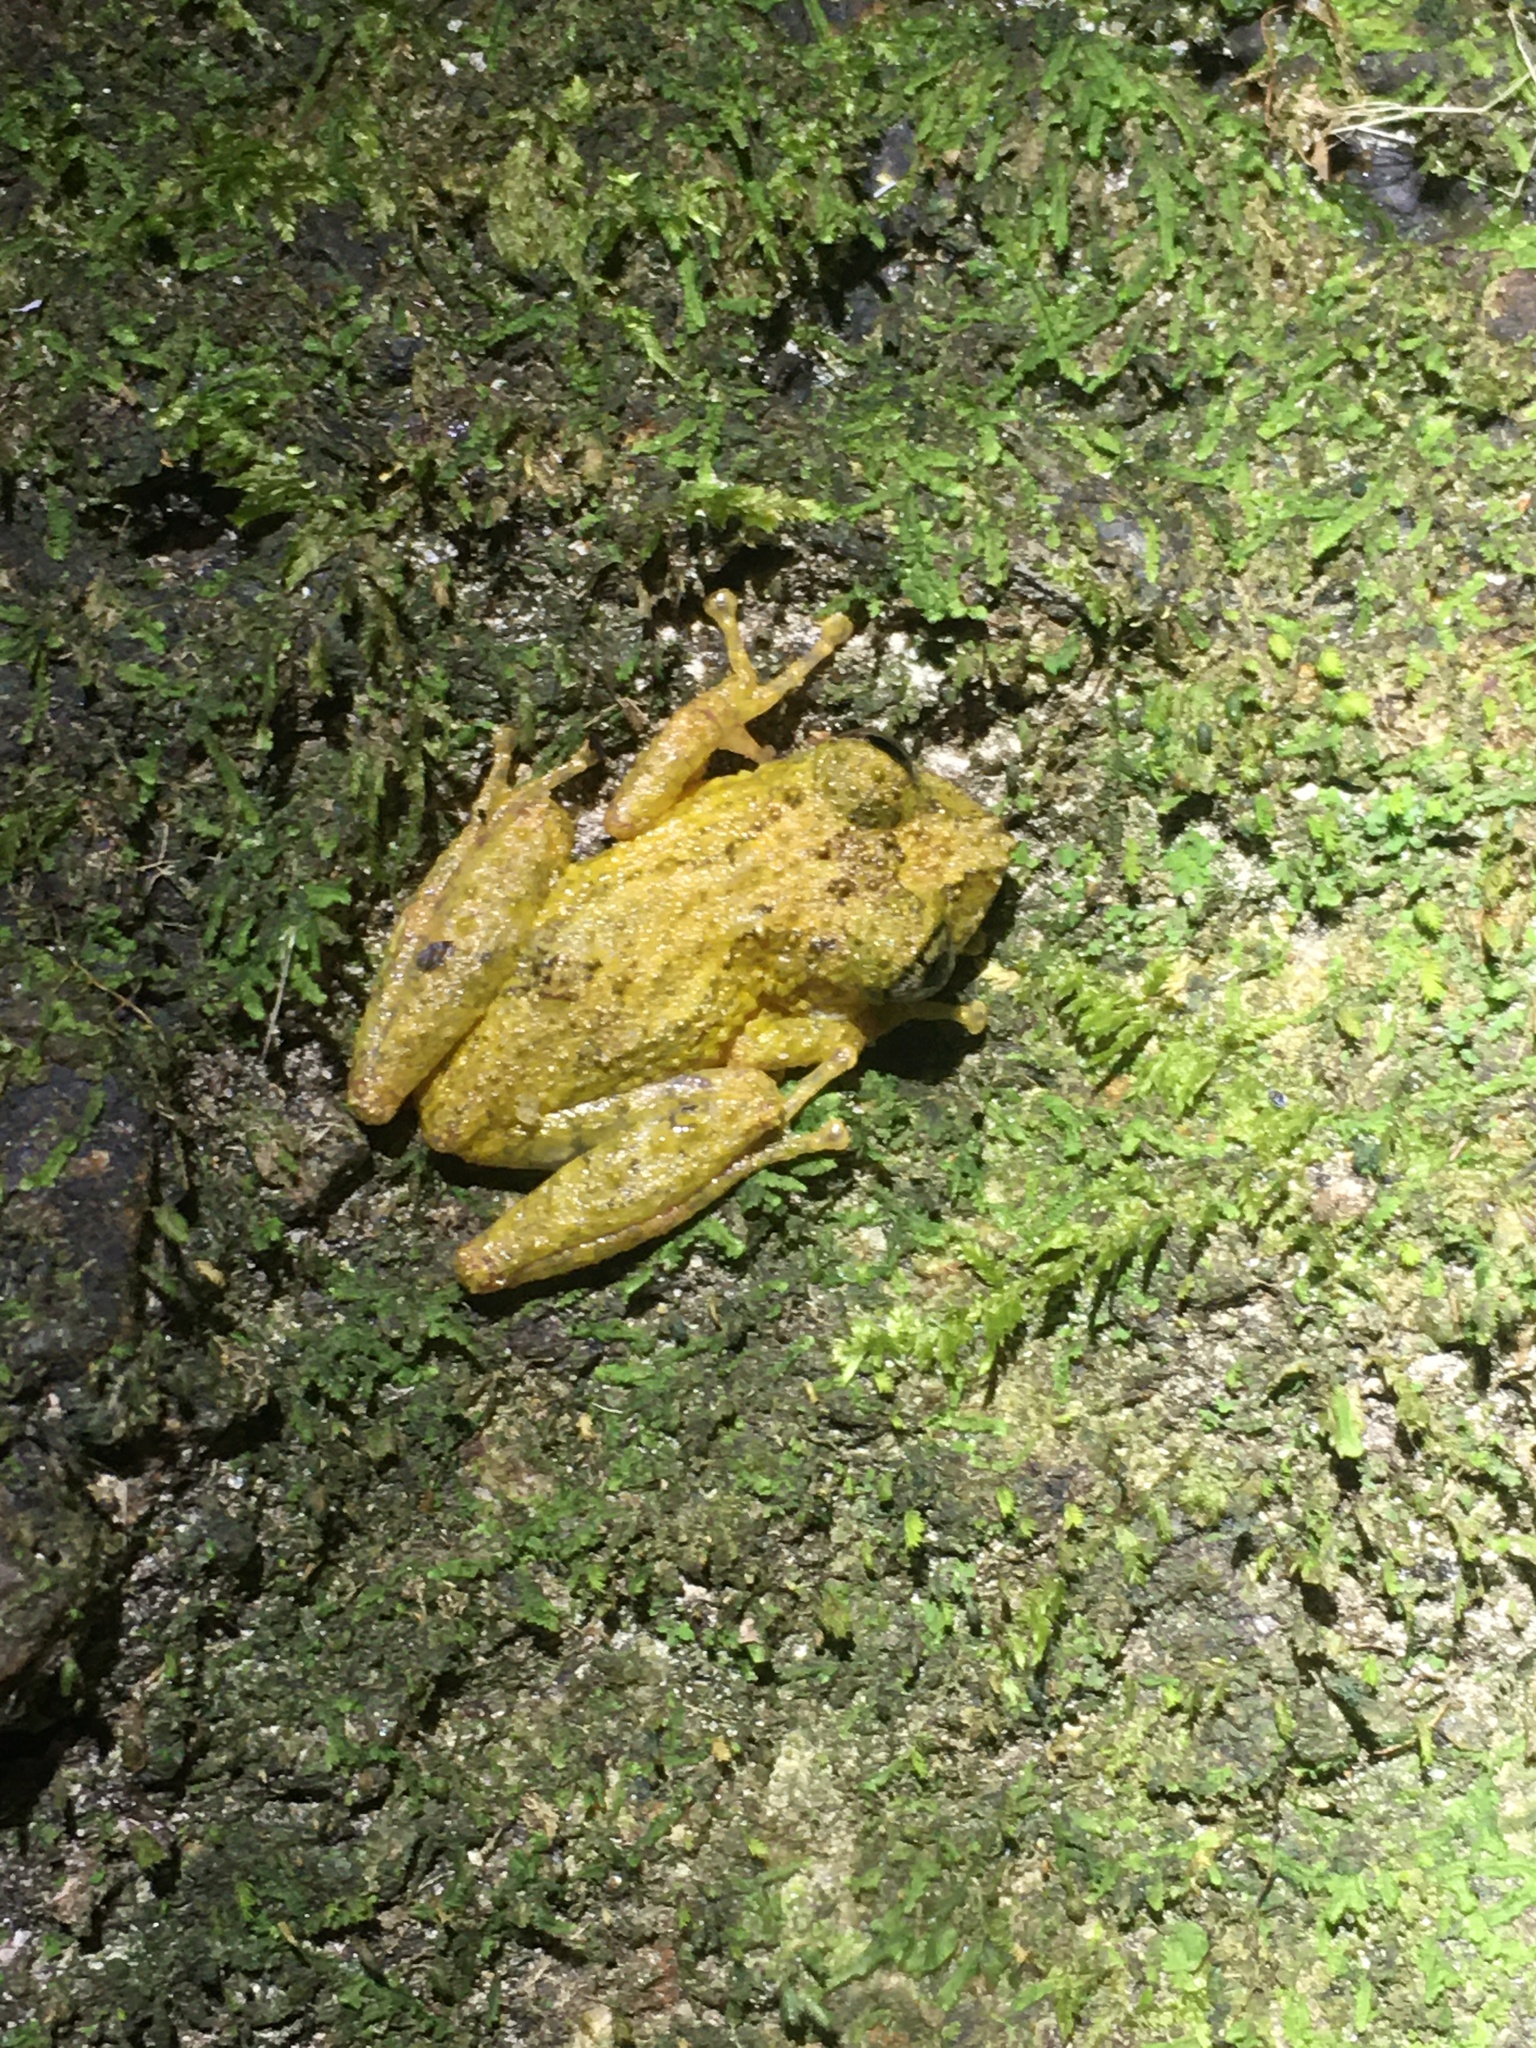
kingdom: Animalia
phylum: Chordata
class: Amphibia
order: Anura
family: Hylidae
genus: Ololygon
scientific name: Ololygon muriciensis
